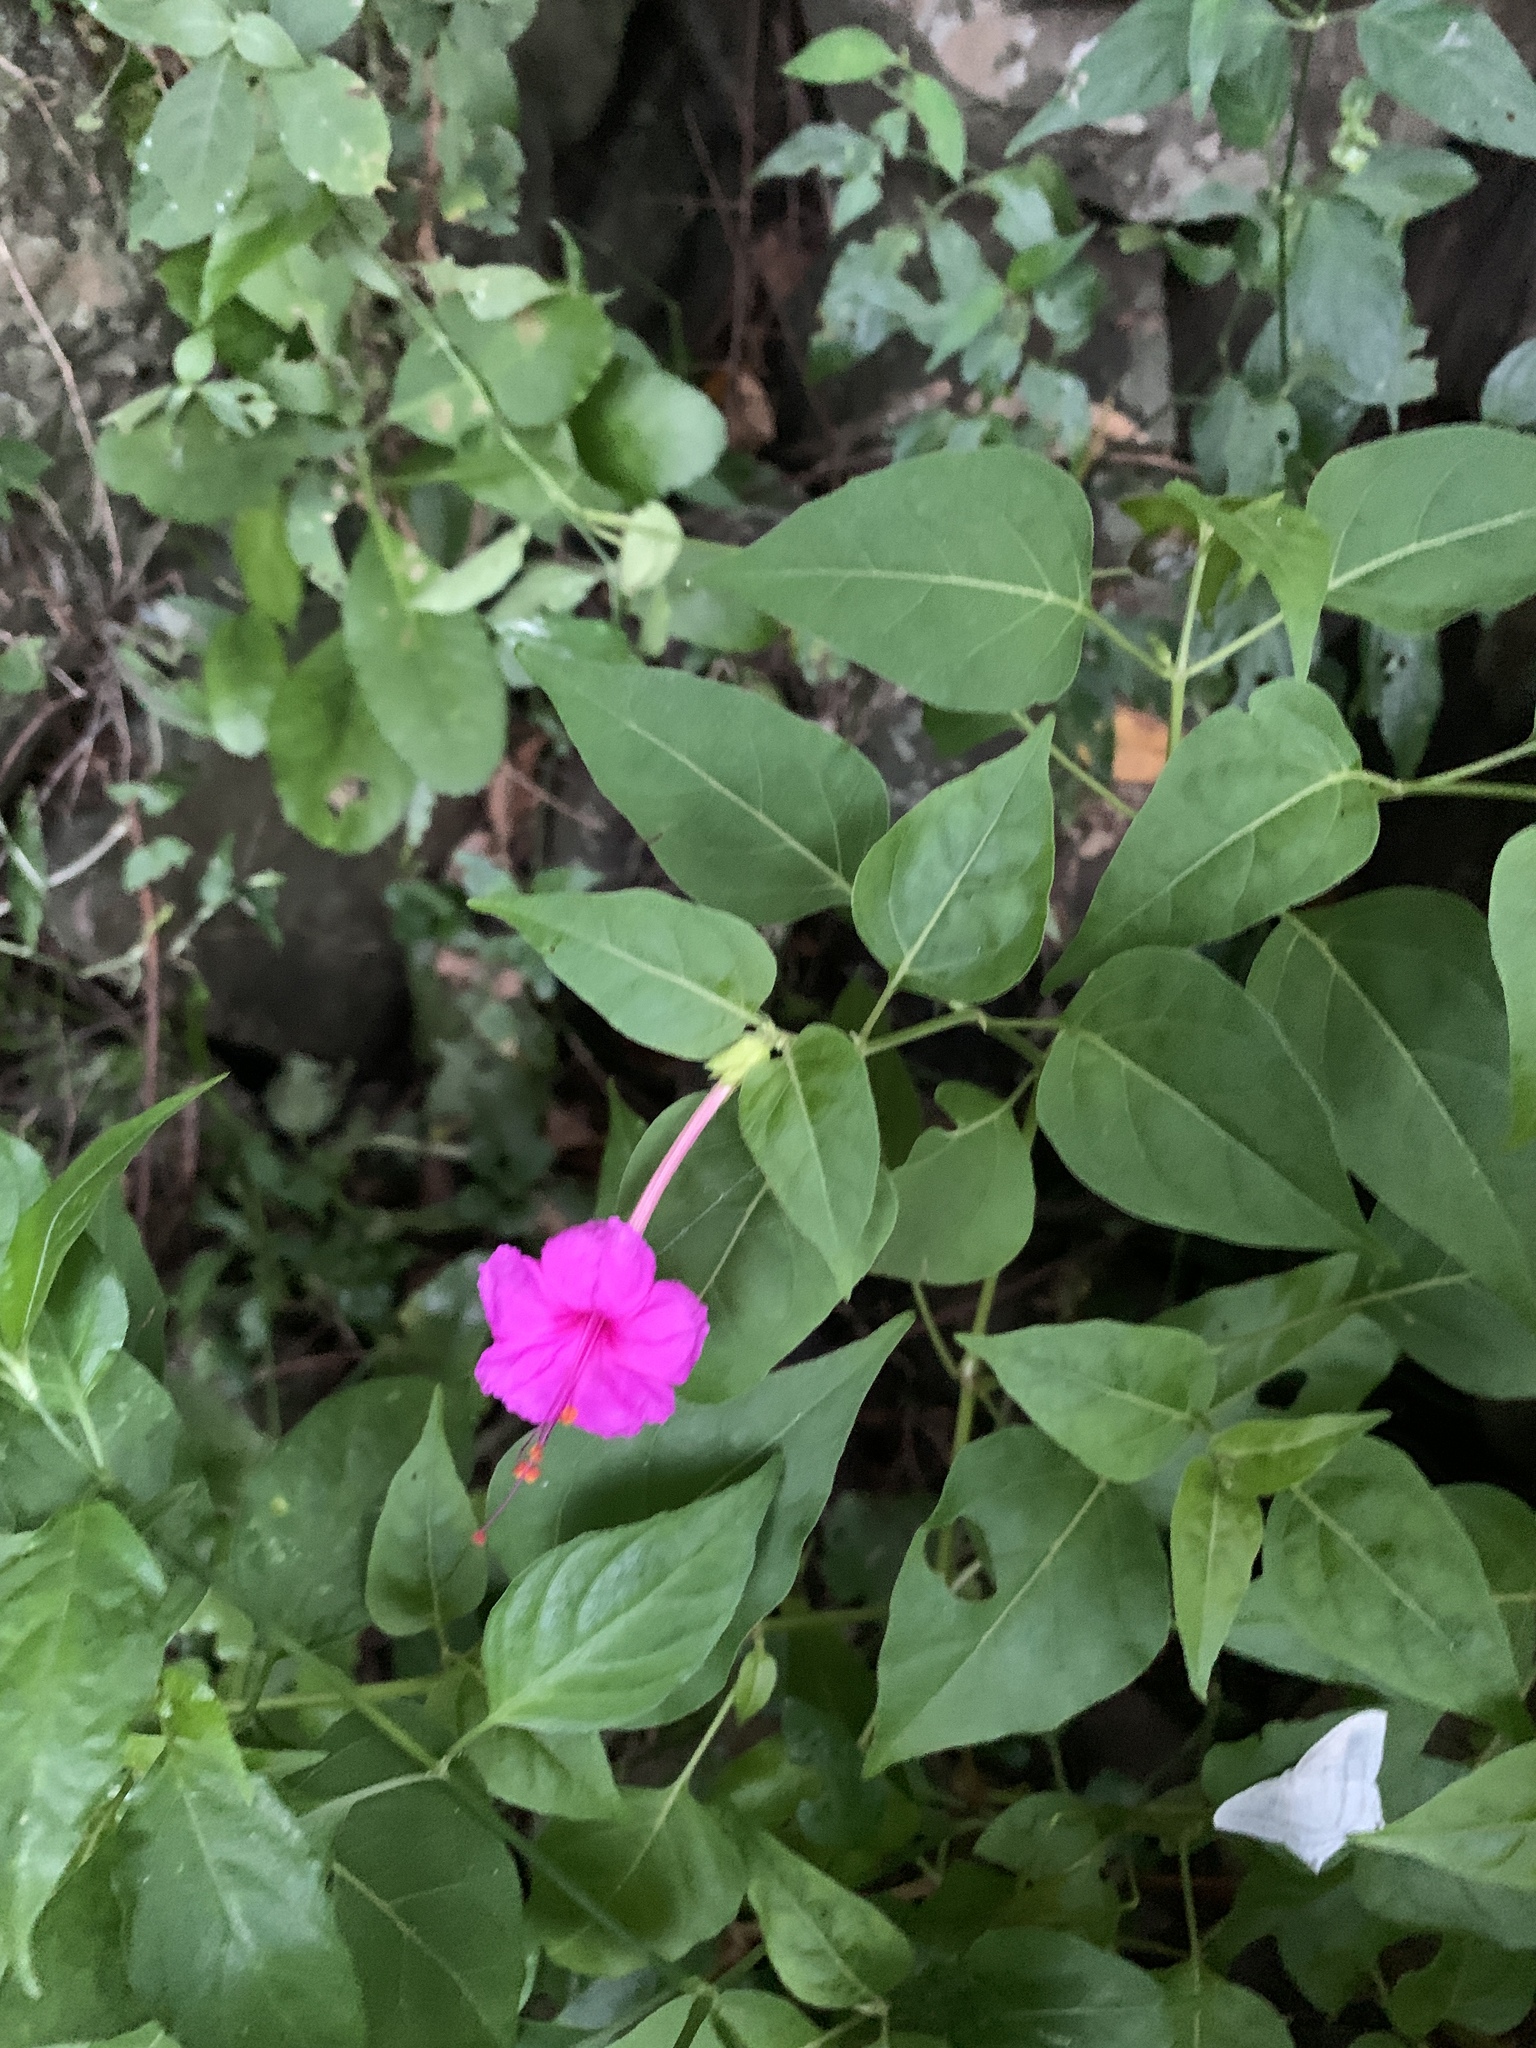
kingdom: Plantae
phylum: Tracheophyta
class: Magnoliopsida
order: Caryophyllales
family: Nyctaginaceae
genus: Mirabilis
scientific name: Mirabilis jalapa
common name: Marvel-of-peru
